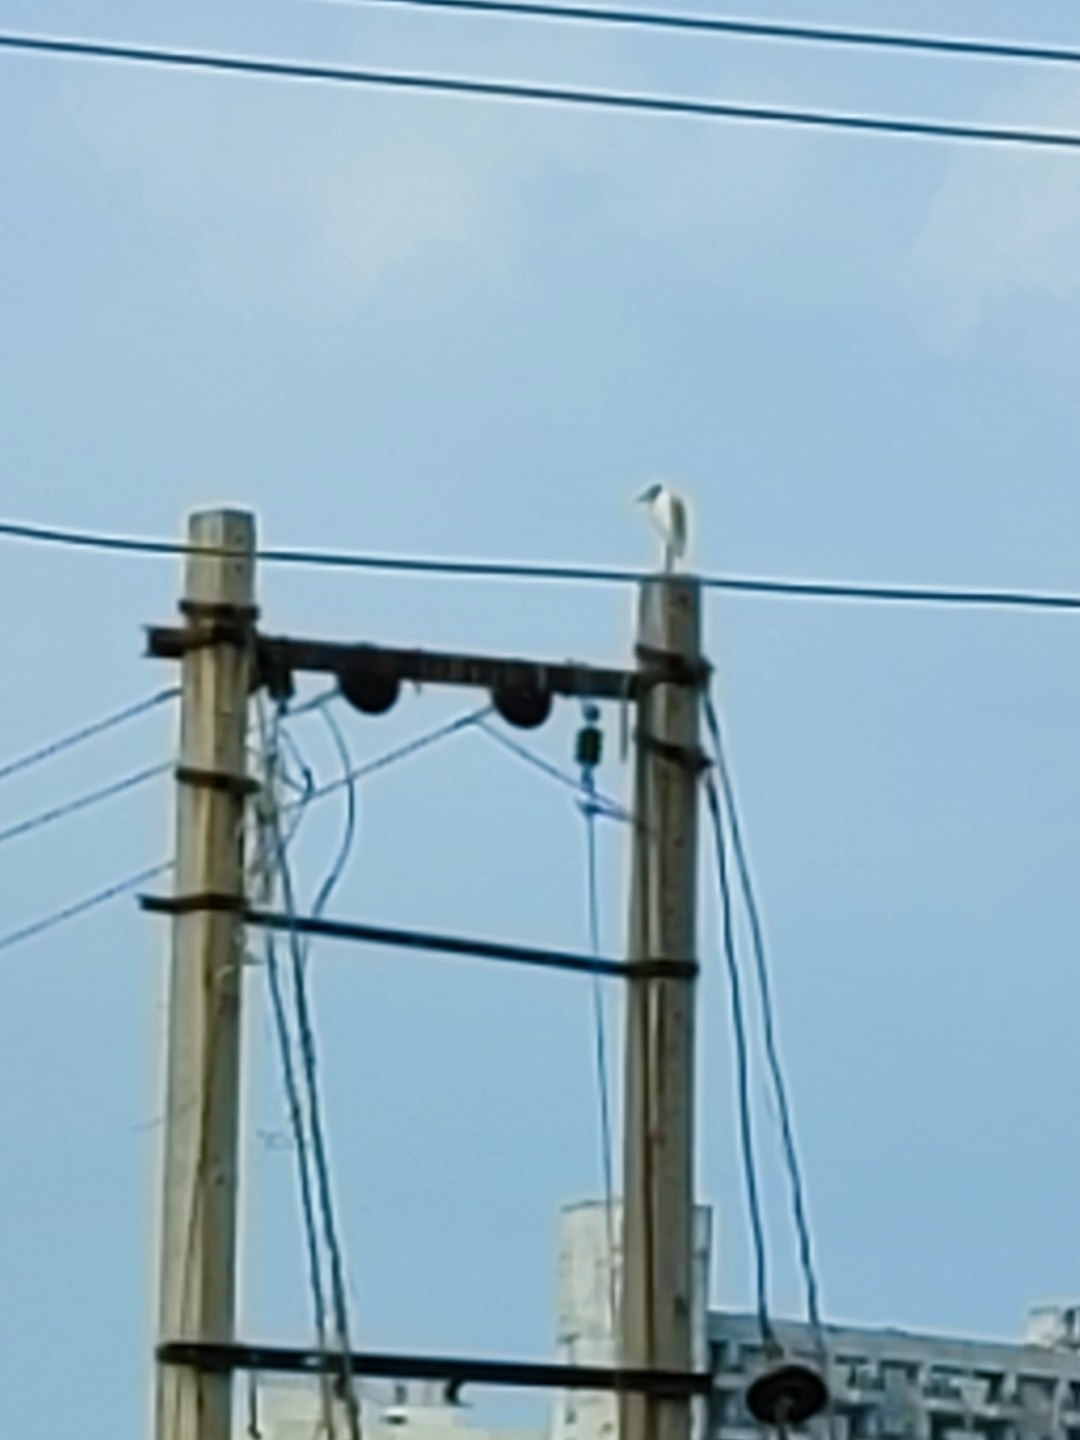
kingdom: Animalia
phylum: Chordata
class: Aves
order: Pelecaniformes
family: Ardeidae
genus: Bubulcus
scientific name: Bubulcus coromandus
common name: Eastern cattle egret
